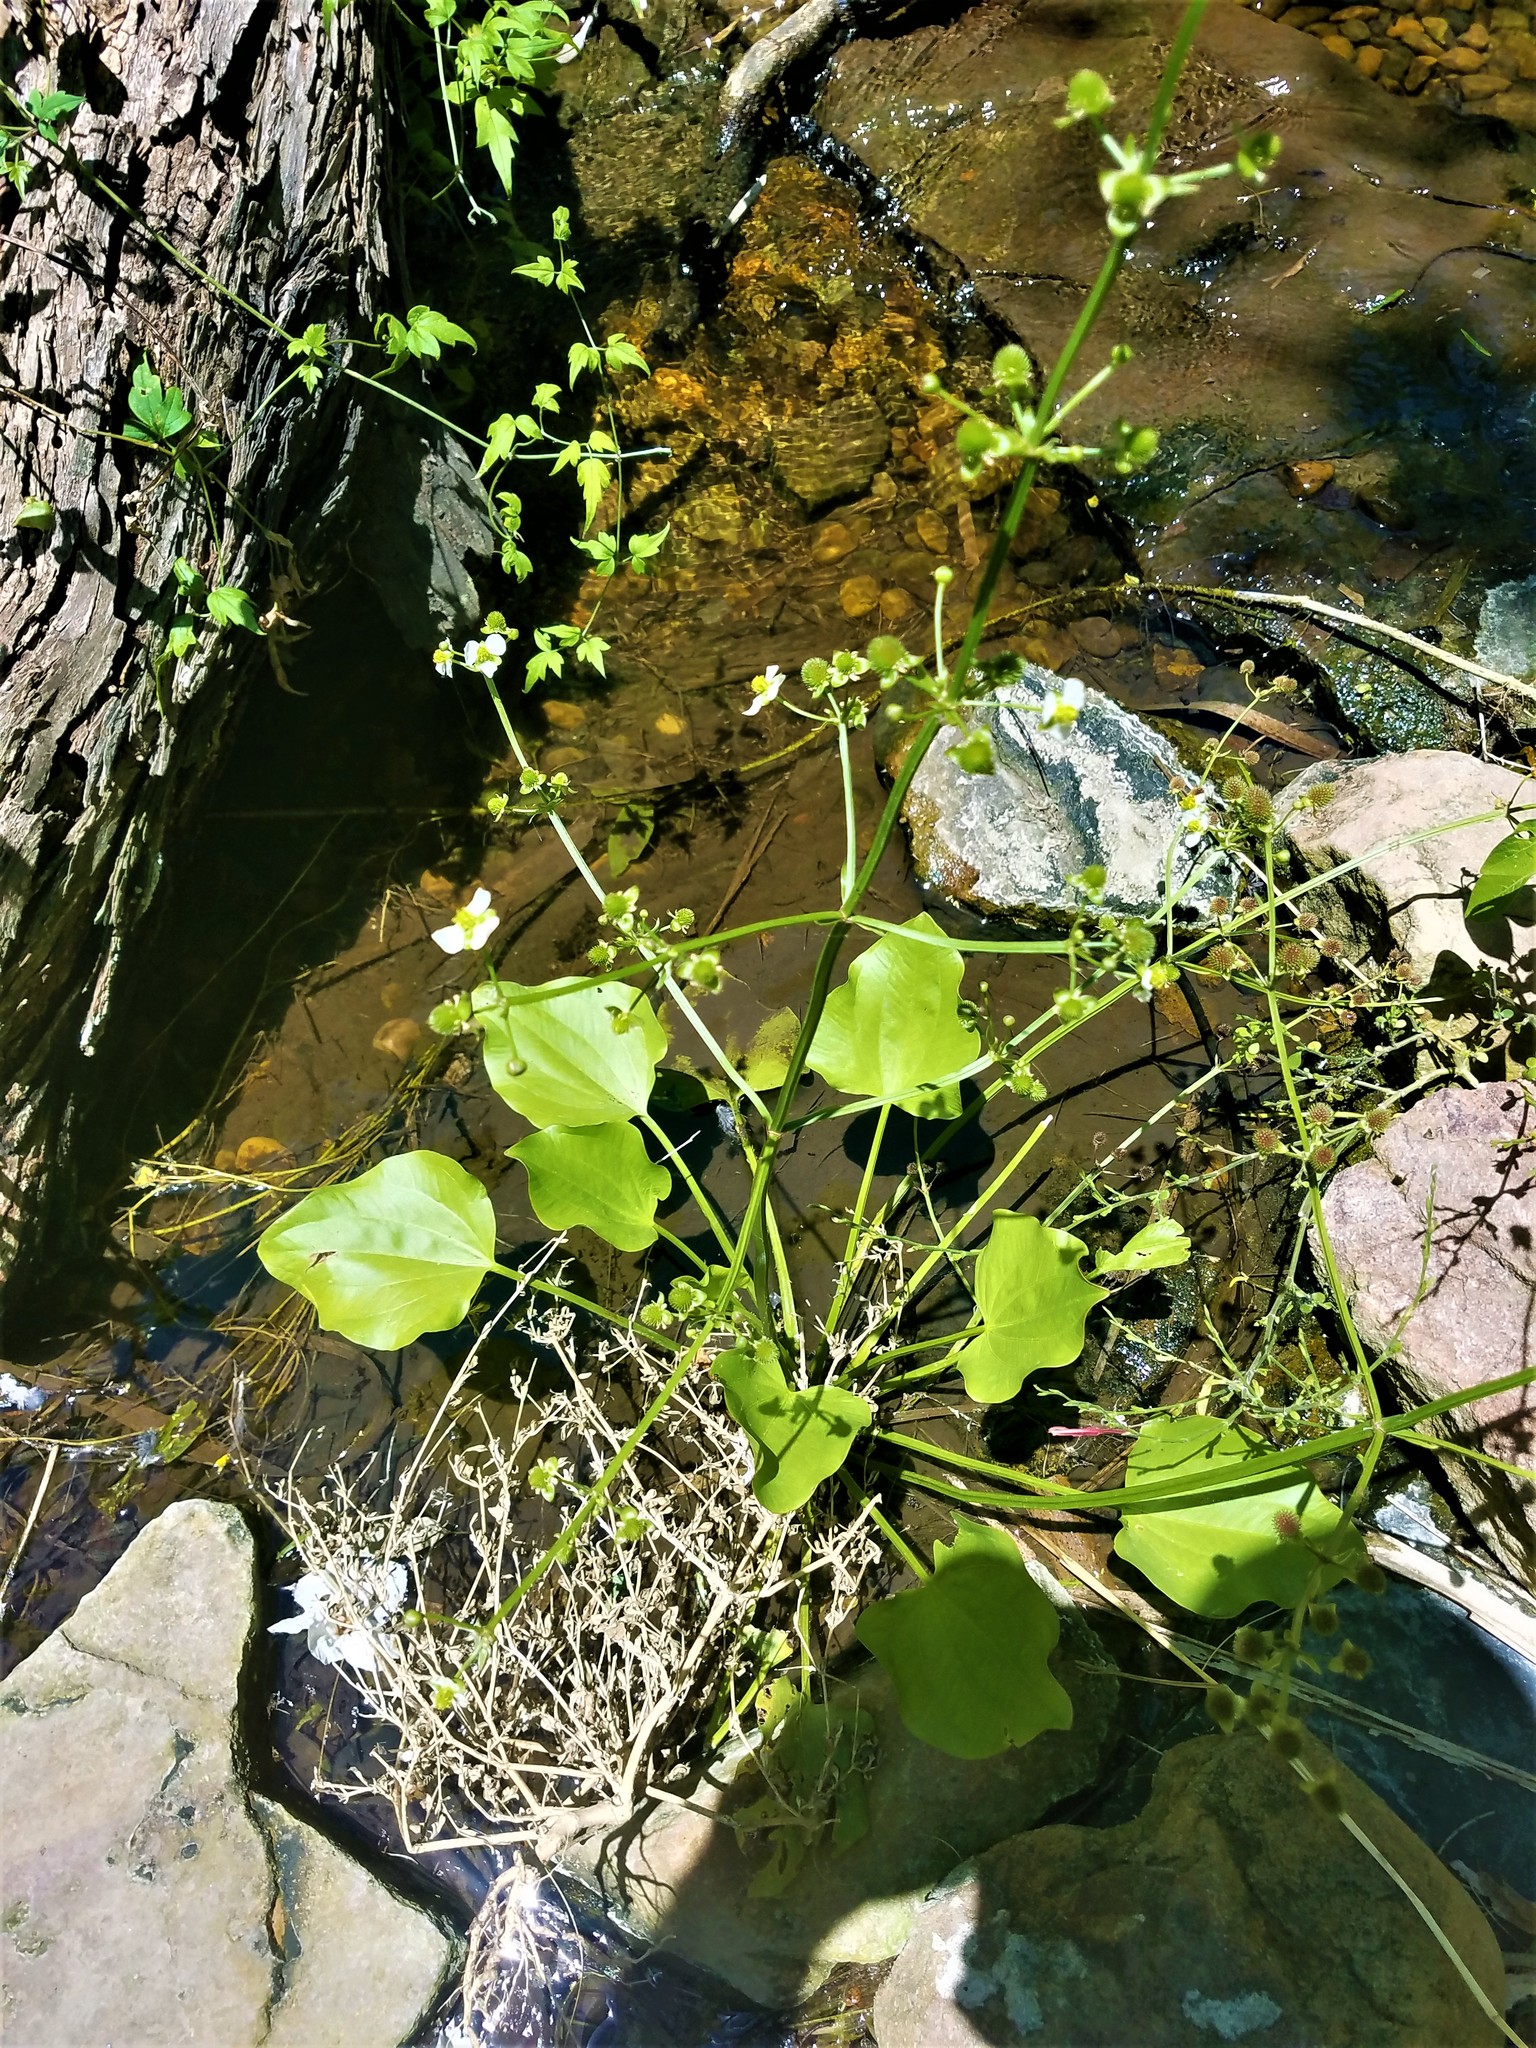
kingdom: Plantae
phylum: Tracheophyta
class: Liliopsida
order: Alismatales
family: Alismataceae
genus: Echinodorus
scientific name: Echinodorus berteroi
